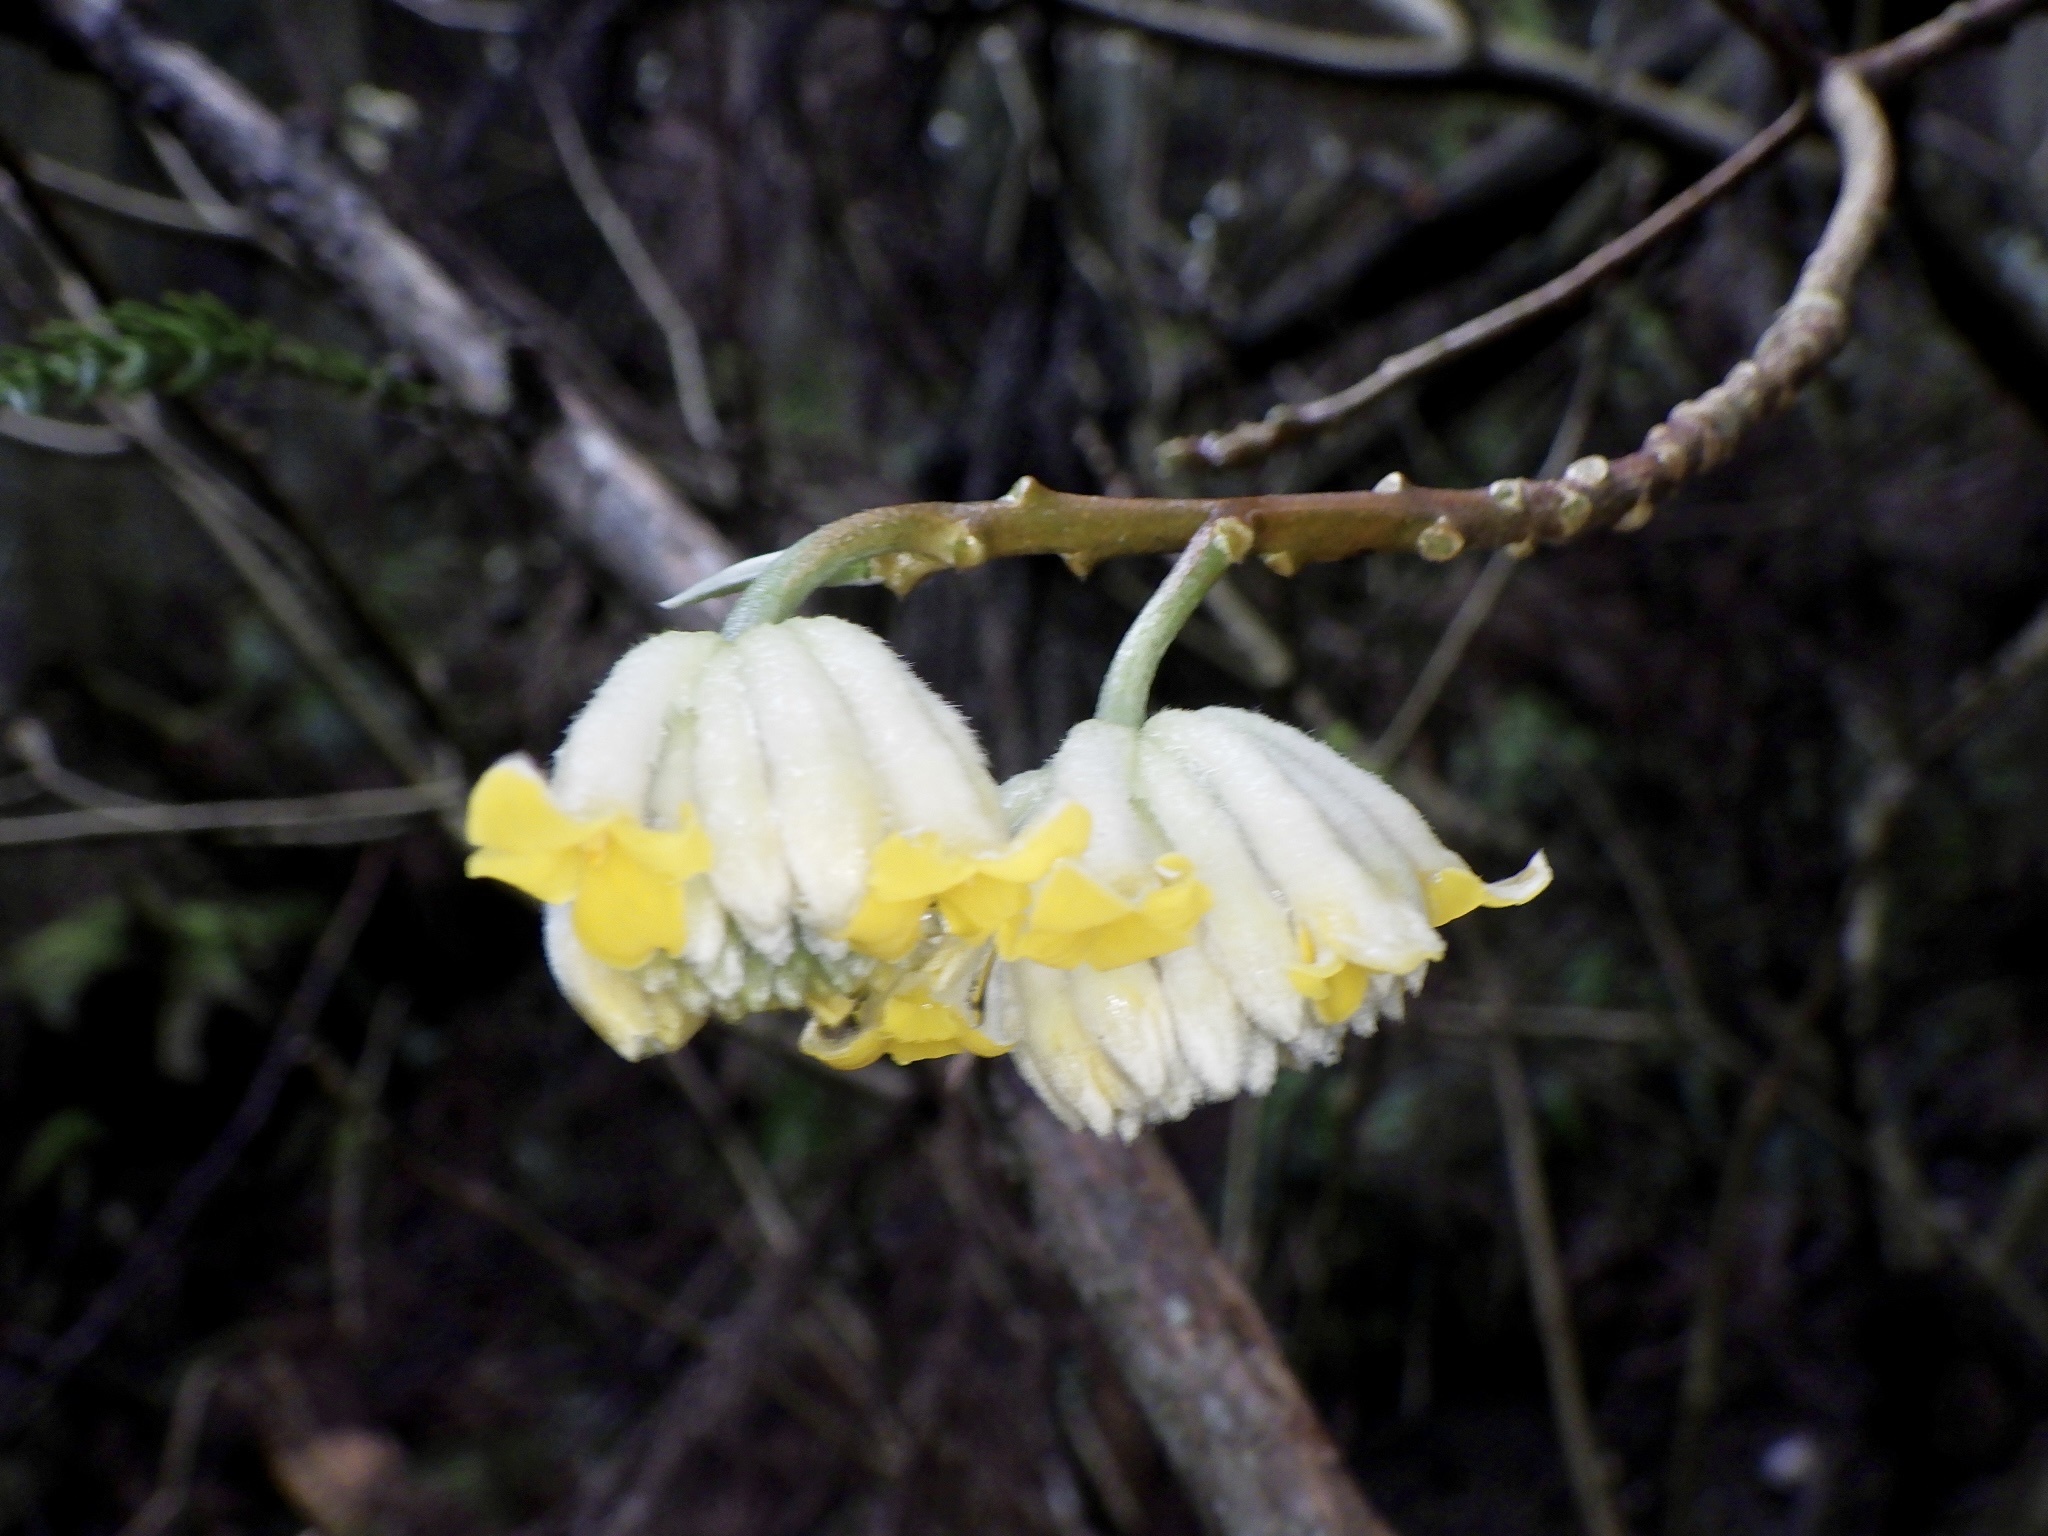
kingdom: Plantae
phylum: Tracheophyta
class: Magnoliopsida
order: Malvales
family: Thymelaeaceae
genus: Edgeworthia
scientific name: Edgeworthia chrysantha
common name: Oriental paperbush
